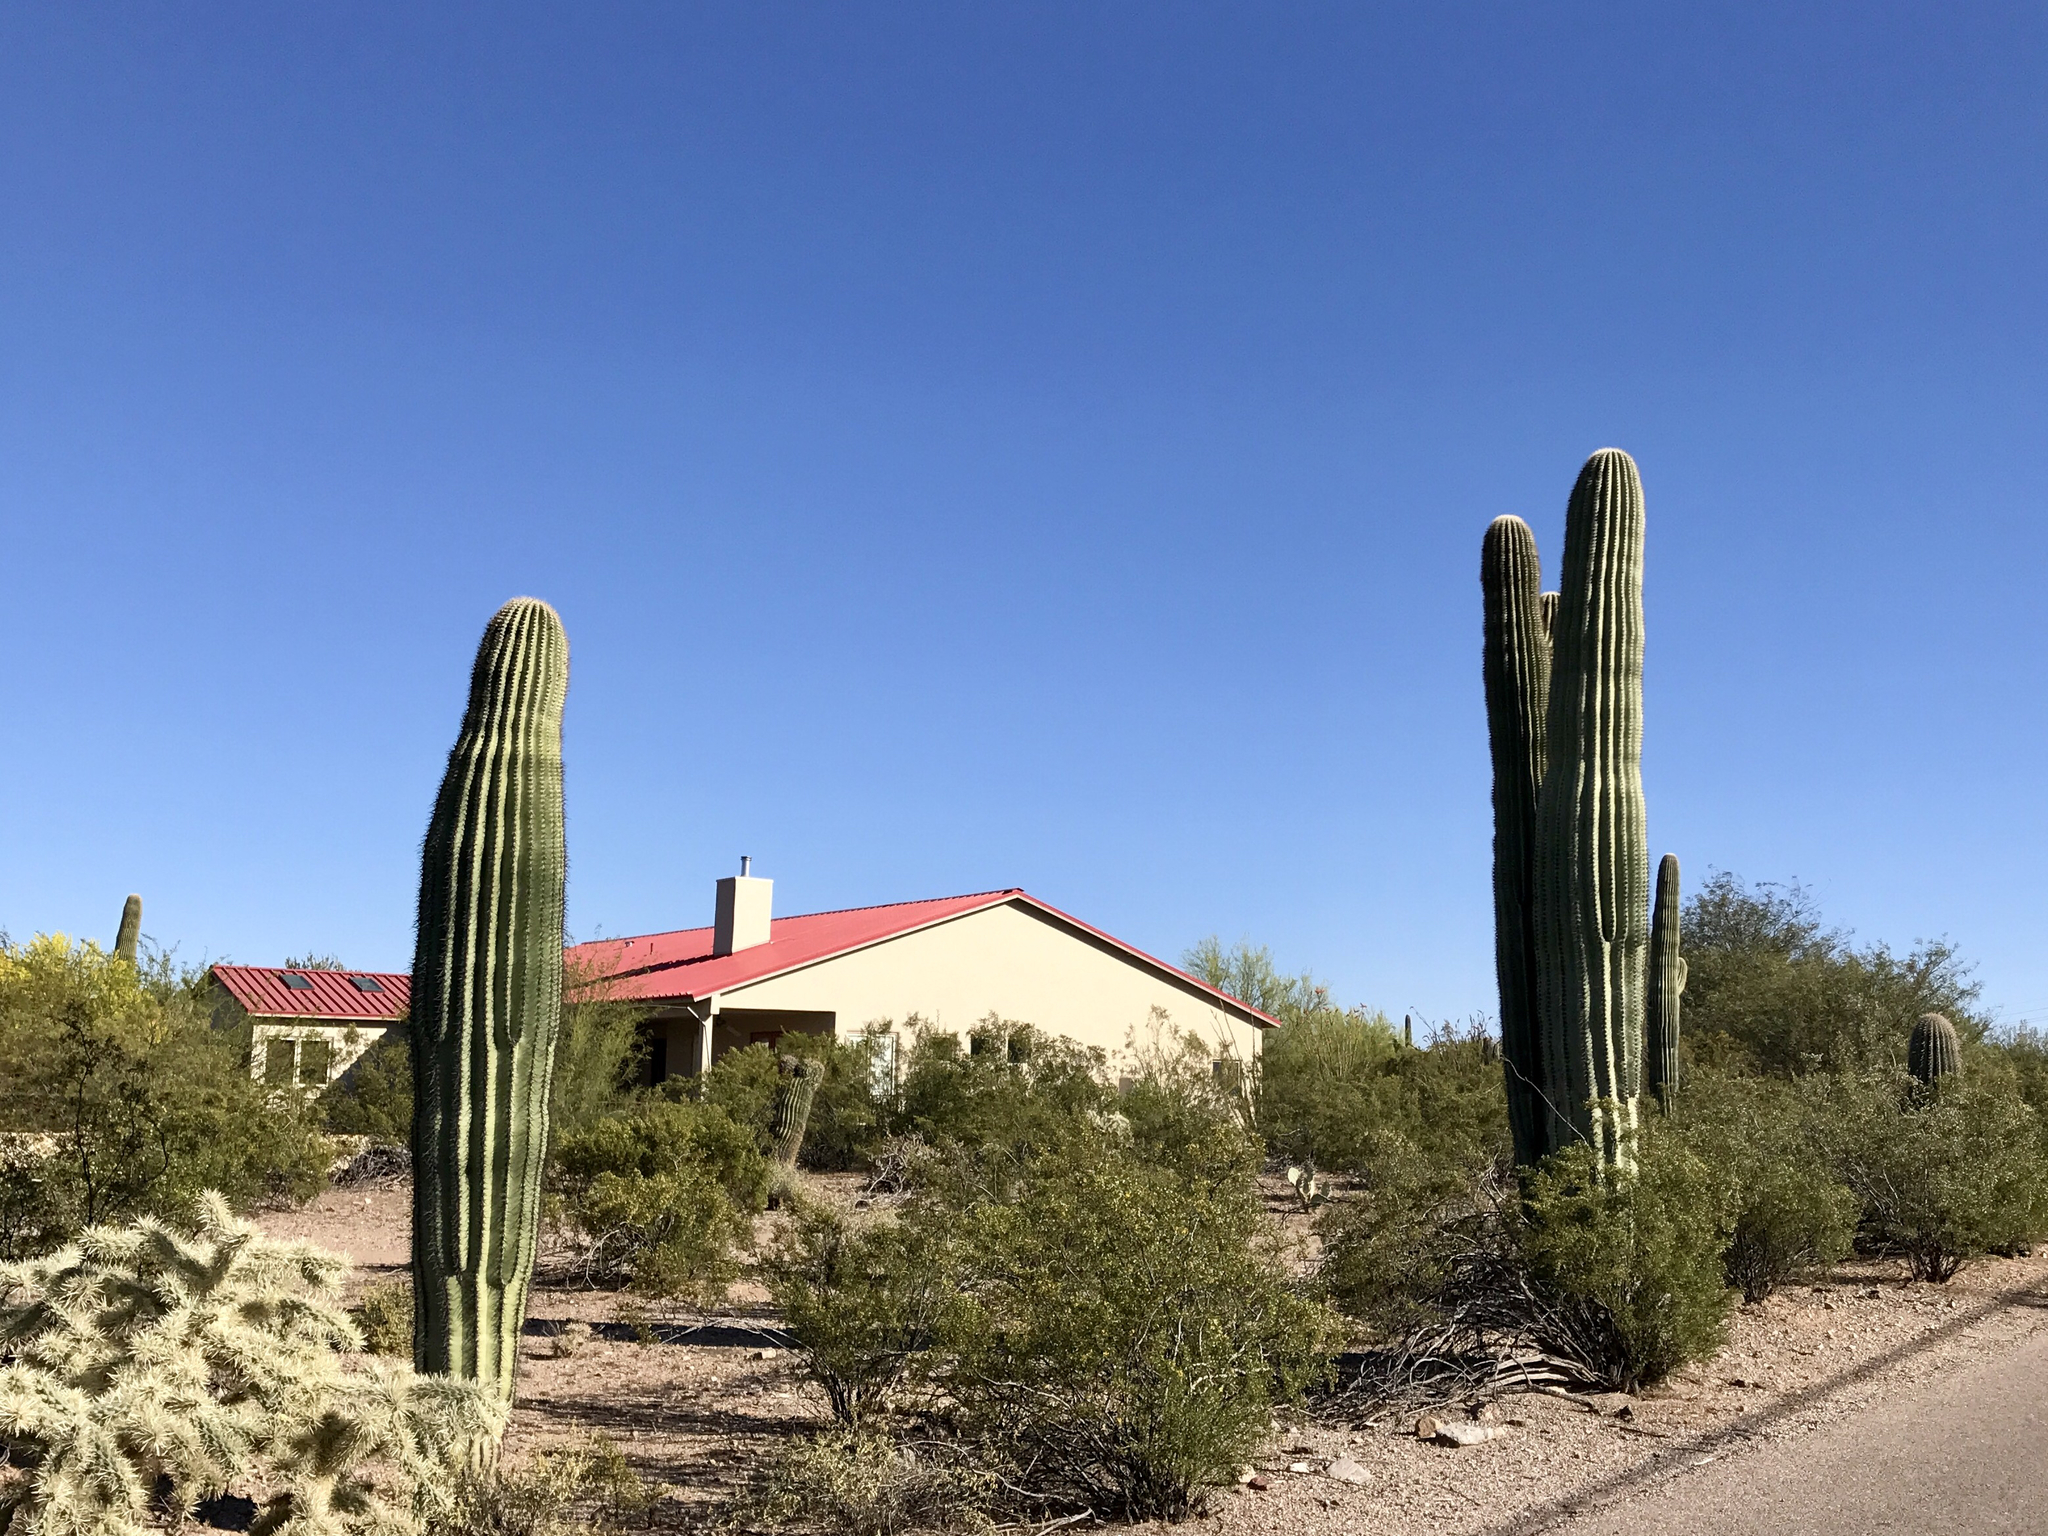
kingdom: Plantae
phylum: Tracheophyta
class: Magnoliopsida
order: Caryophyllales
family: Cactaceae
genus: Carnegiea
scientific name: Carnegiea gigantea
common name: Saguaro
